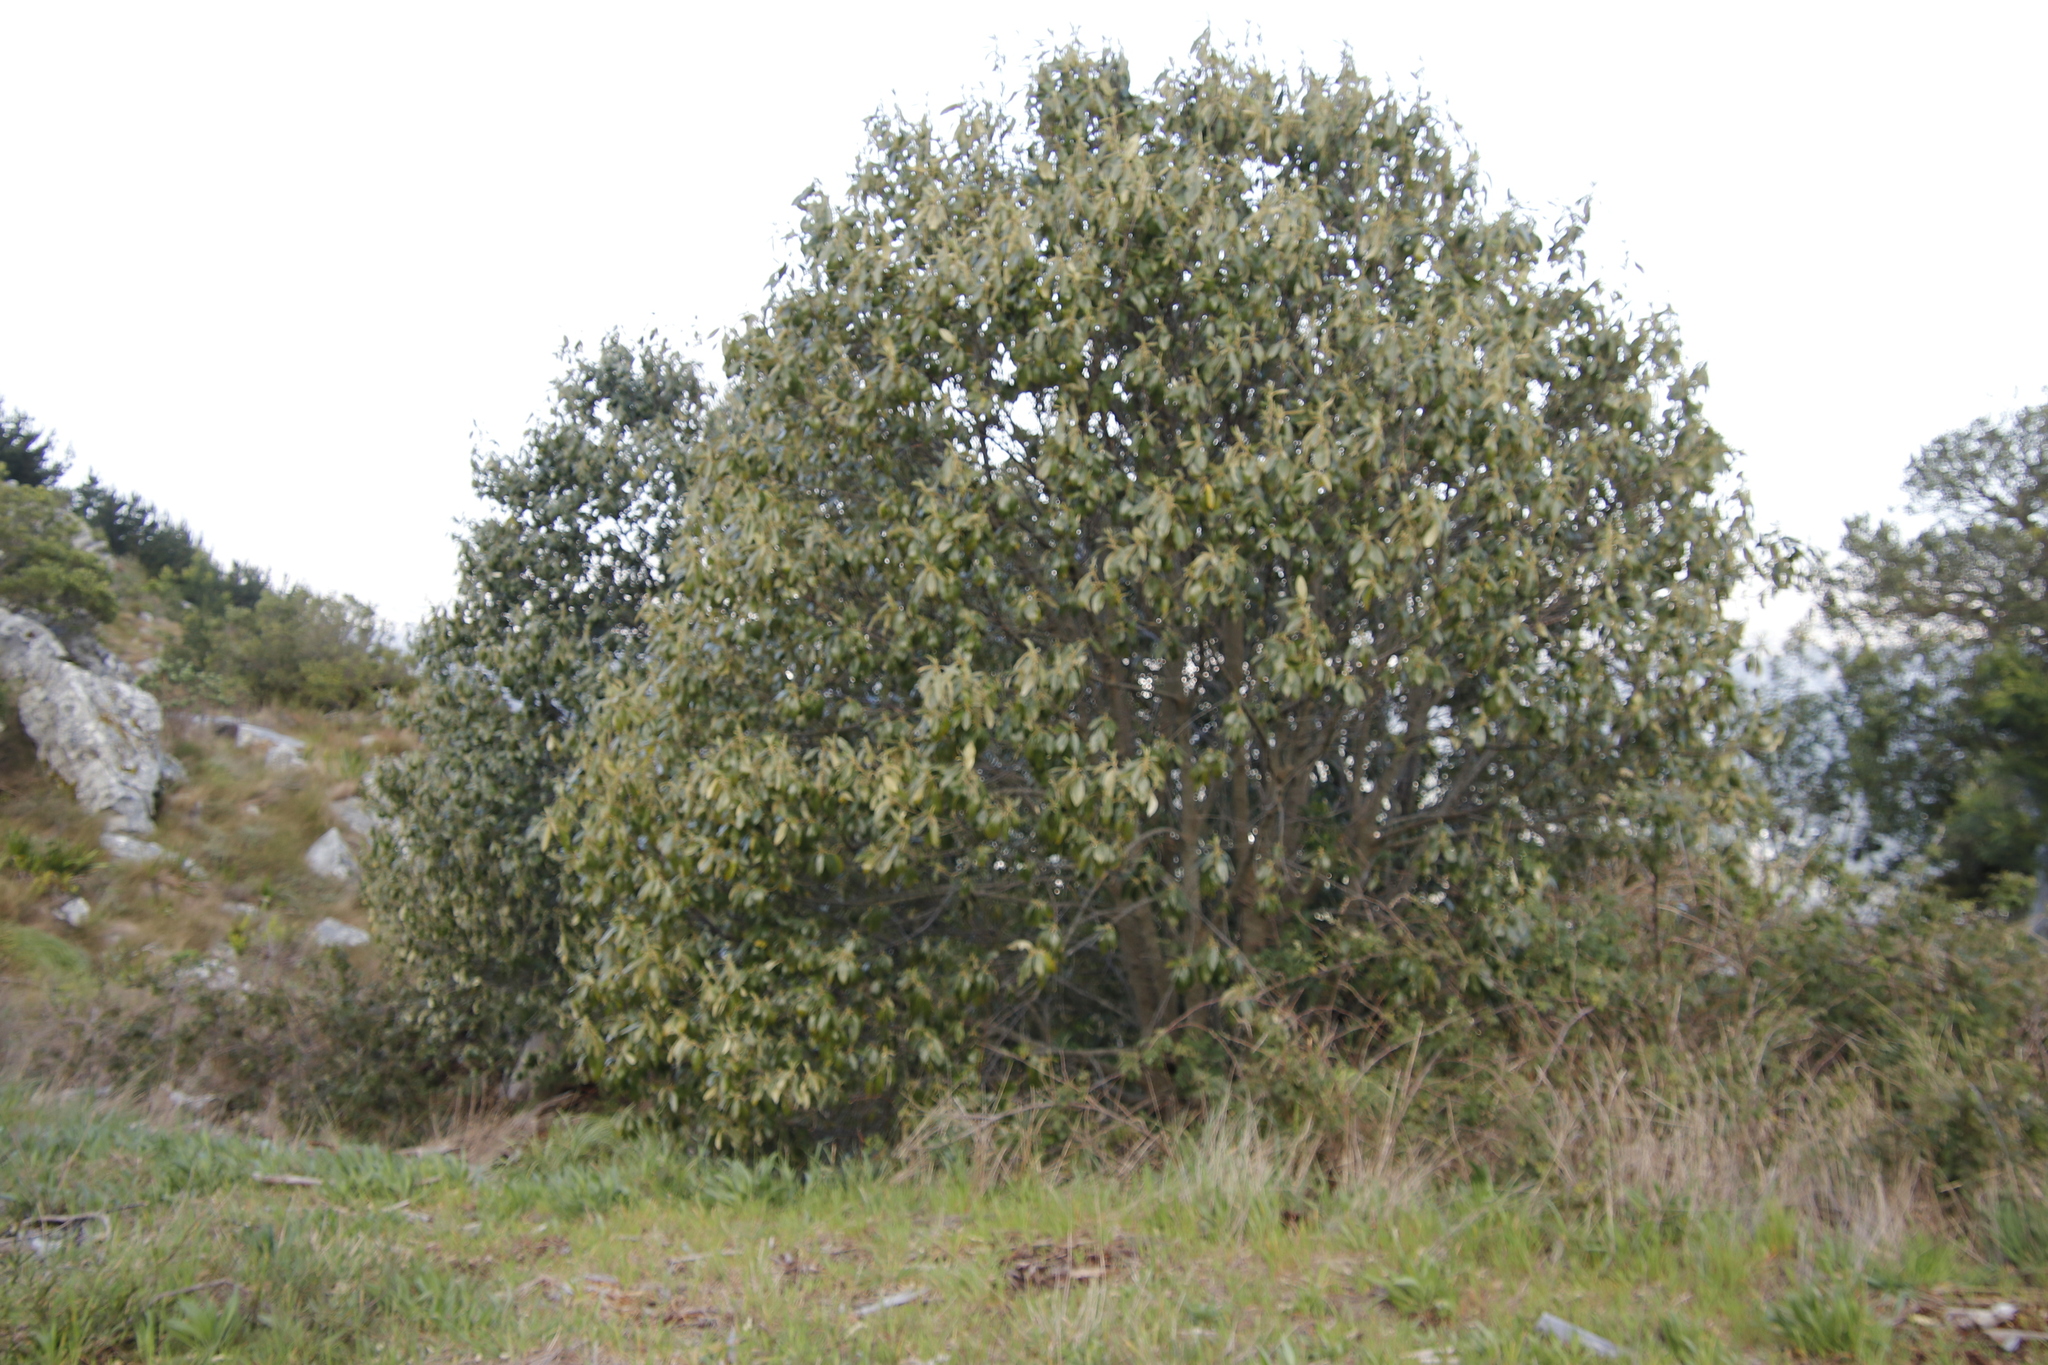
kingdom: Plantae
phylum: Tracheophyta
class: Magnoliopsida
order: Malpighiales
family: Achariaceae
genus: Kiggelaria
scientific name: Kiggelaria africana
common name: Wild peach
